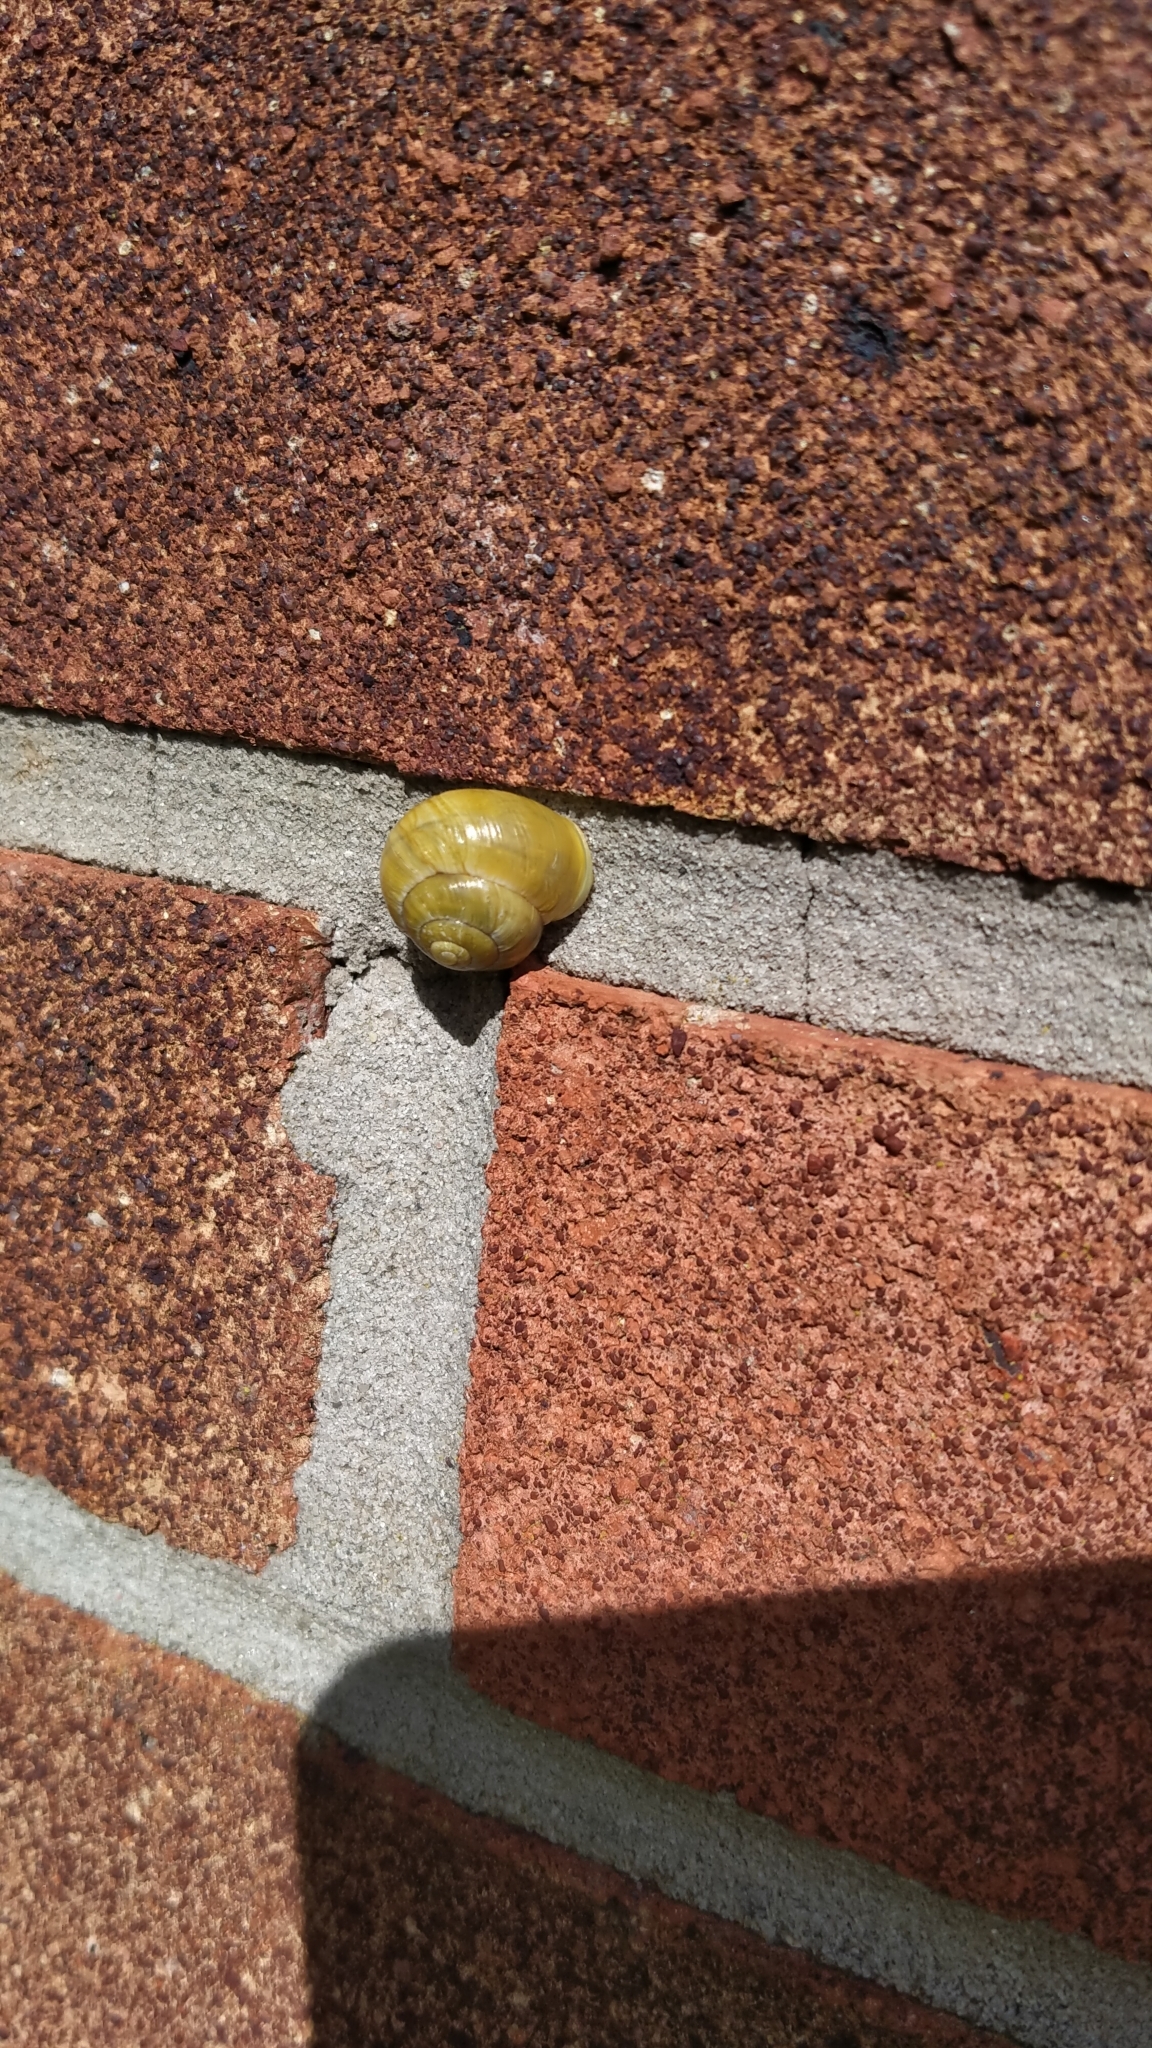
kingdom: Animalia
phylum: Mollusca
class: Gastropoda
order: Stylommatophora
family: Helicidae
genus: Cepaea
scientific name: Cepaea hortensis
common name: White-lip gardensnail
